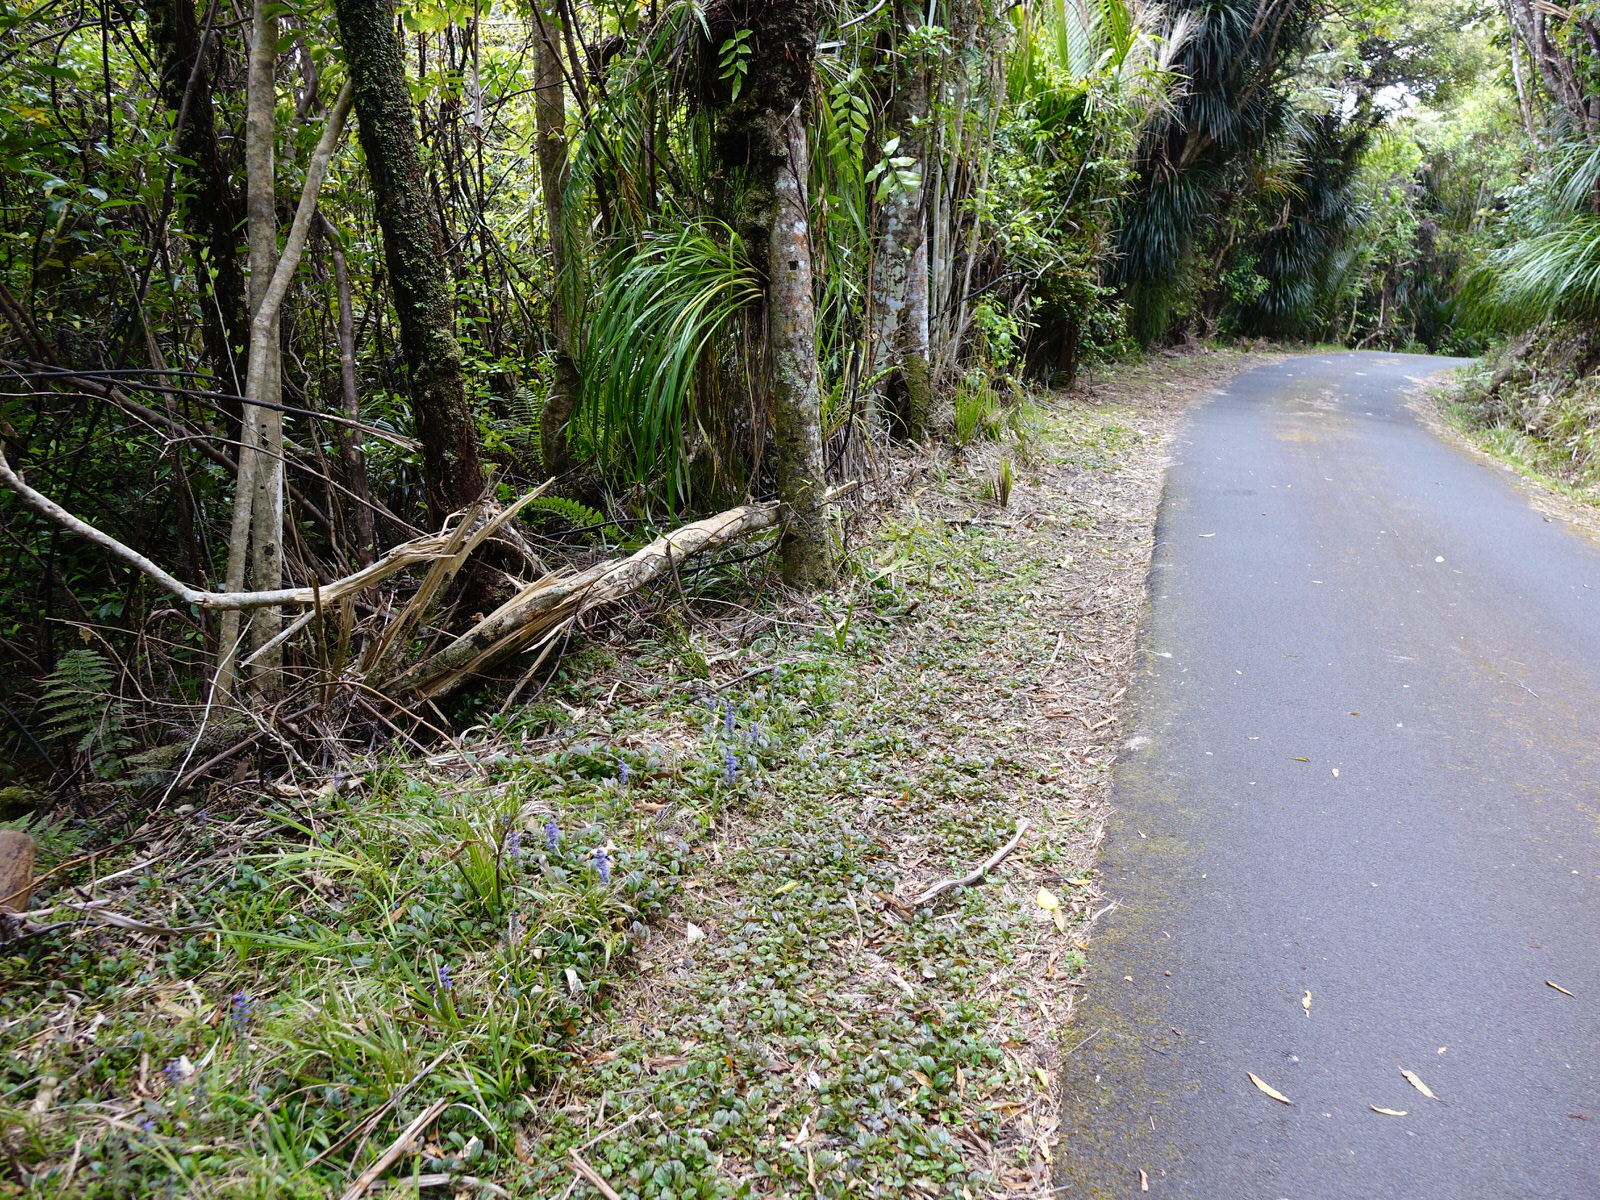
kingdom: Plantae
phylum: Tracheophyta
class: Magnoliopsida
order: Lamiales
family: Lamiaceae
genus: Ajuga
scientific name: Ajuga reptans
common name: Bugle
